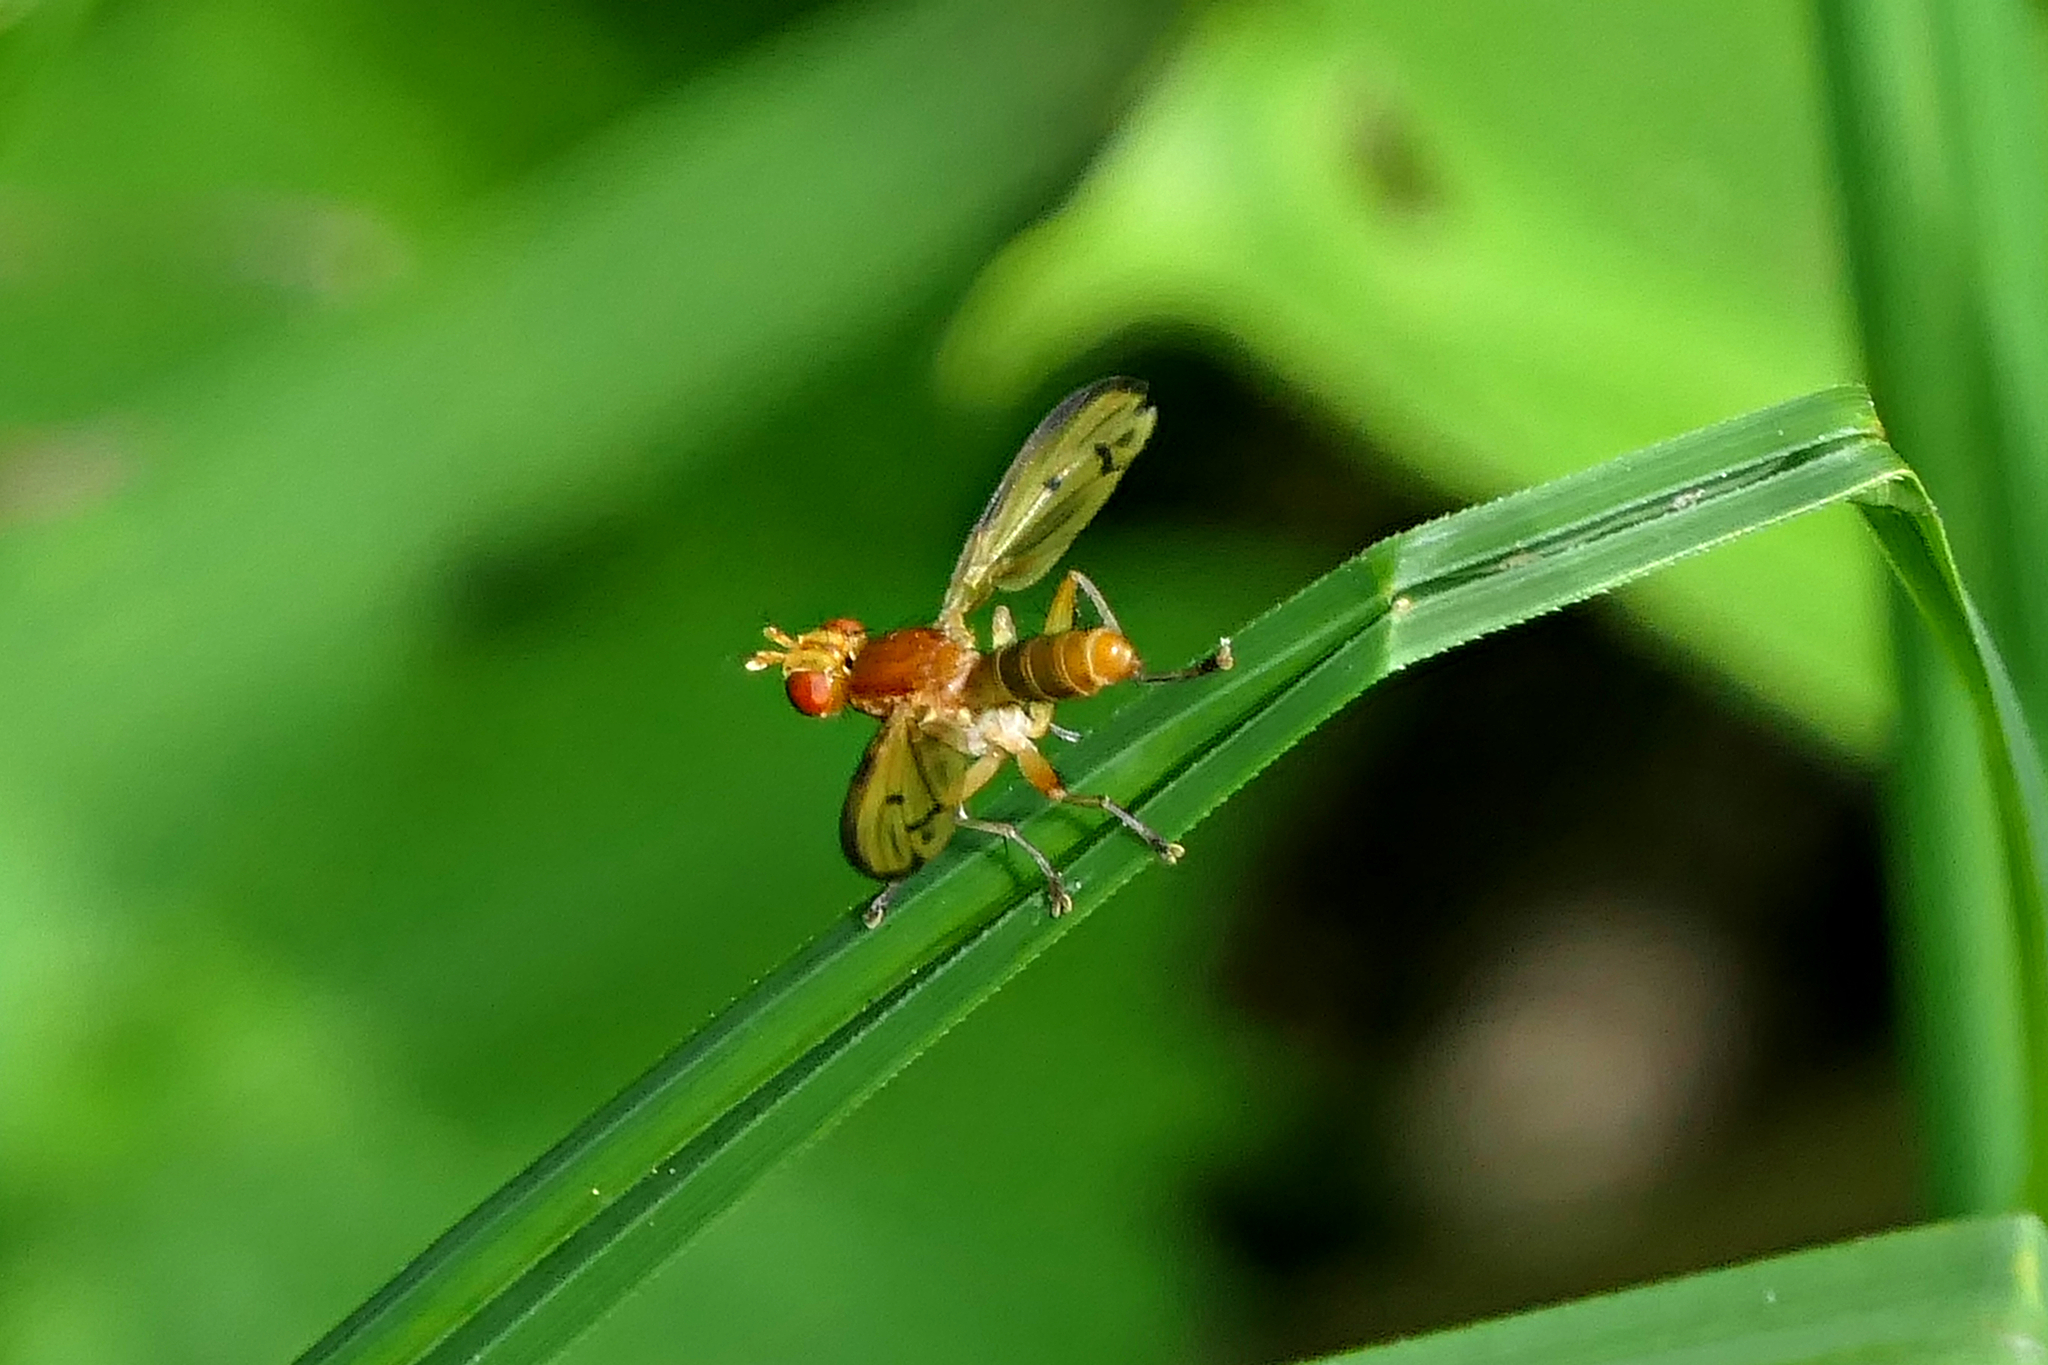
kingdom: Animalia
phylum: Arthropoda
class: Insecta
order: Diptera
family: Sciomyzidae
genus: Tetanocera
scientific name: Tetanocera plebeja
